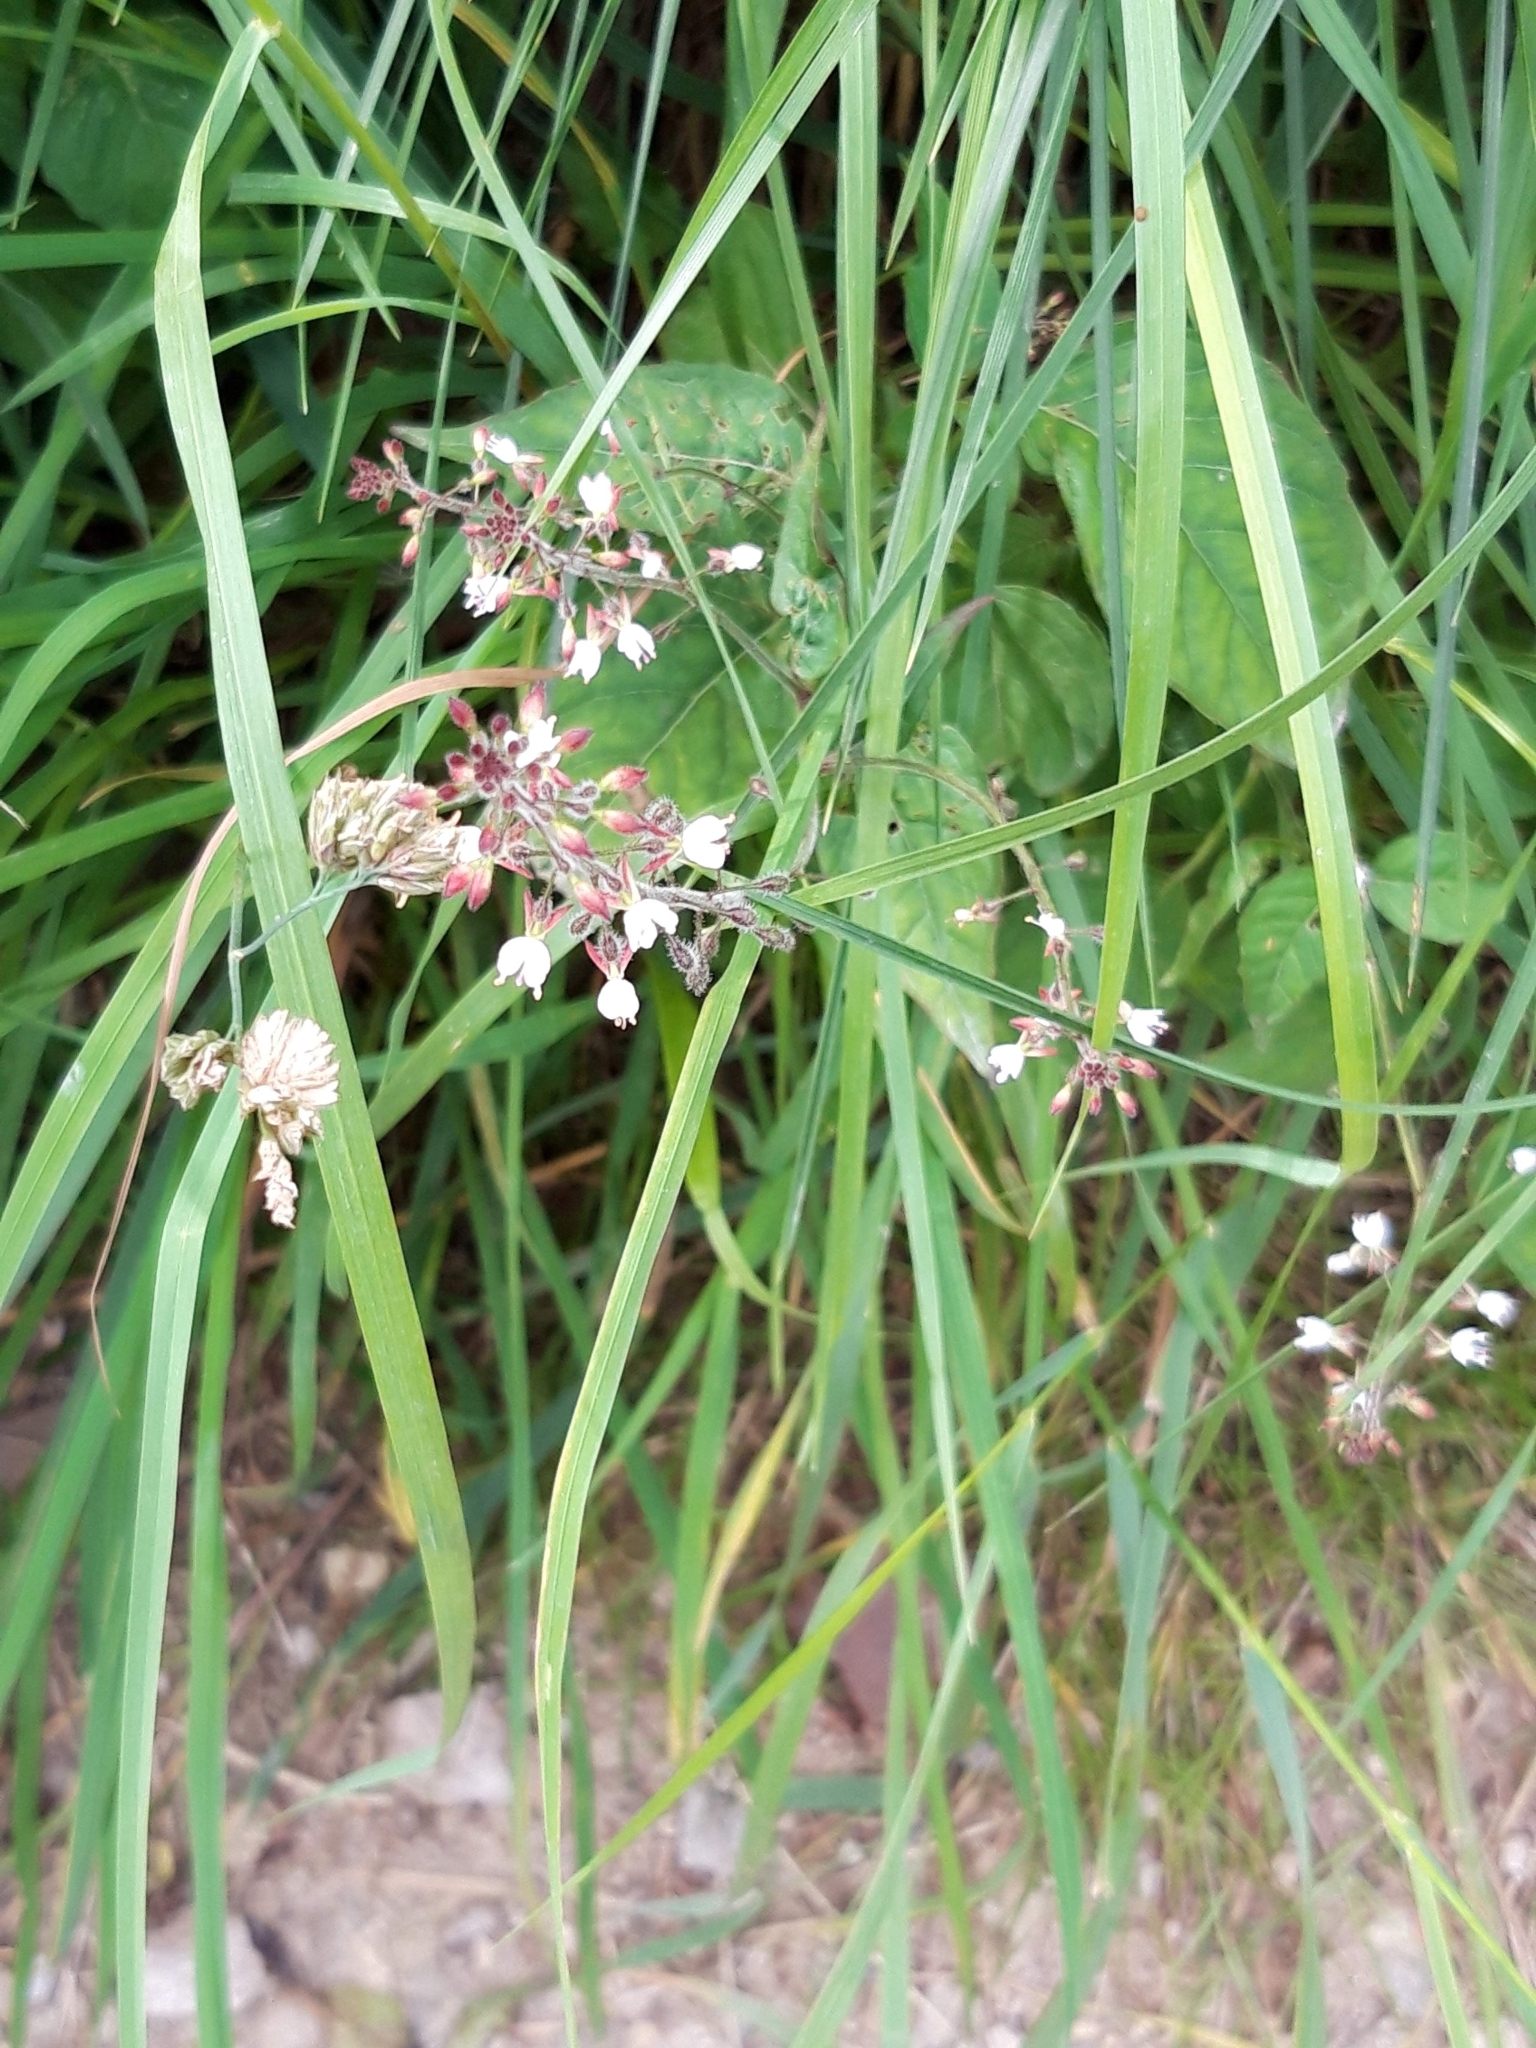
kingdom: Plantae
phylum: Tracheophyta
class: Magnoliopsida
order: Myrtales
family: Onagraceae
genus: Circaea
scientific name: Circaea lutetiana
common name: Enchanter's-nightshade
